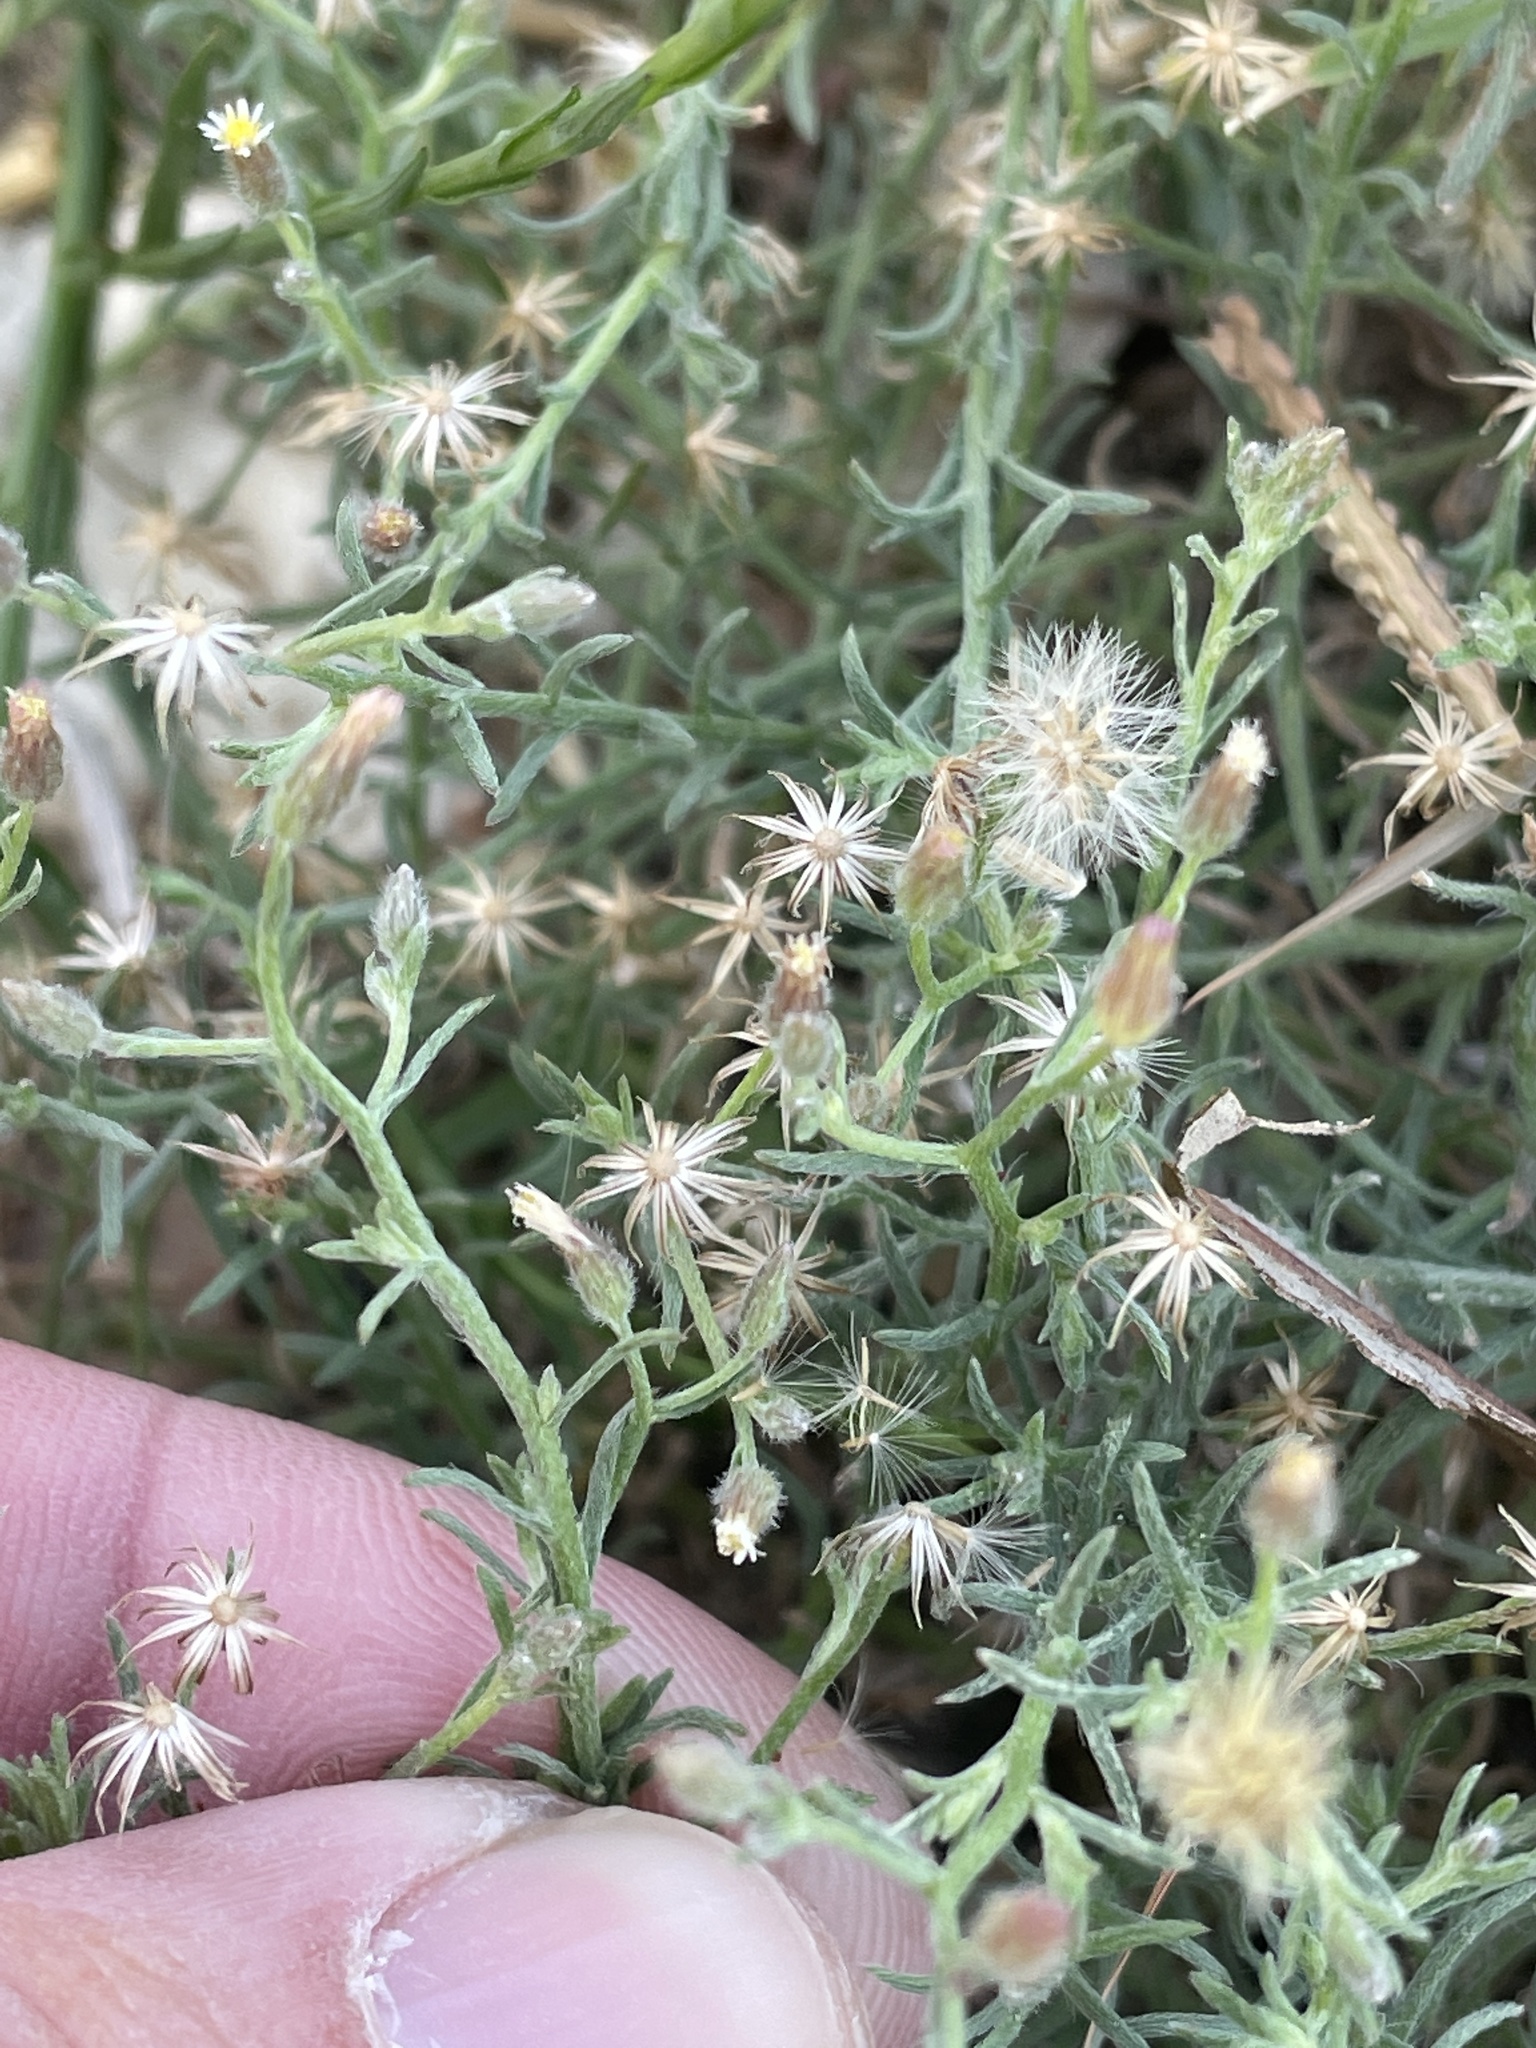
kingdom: Plantae
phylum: Tracheophyta
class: Magnoliopsida
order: Asterales
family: Asteraceae
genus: Erigeron
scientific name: Erigeron divaricatus
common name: Dwarf conyza
